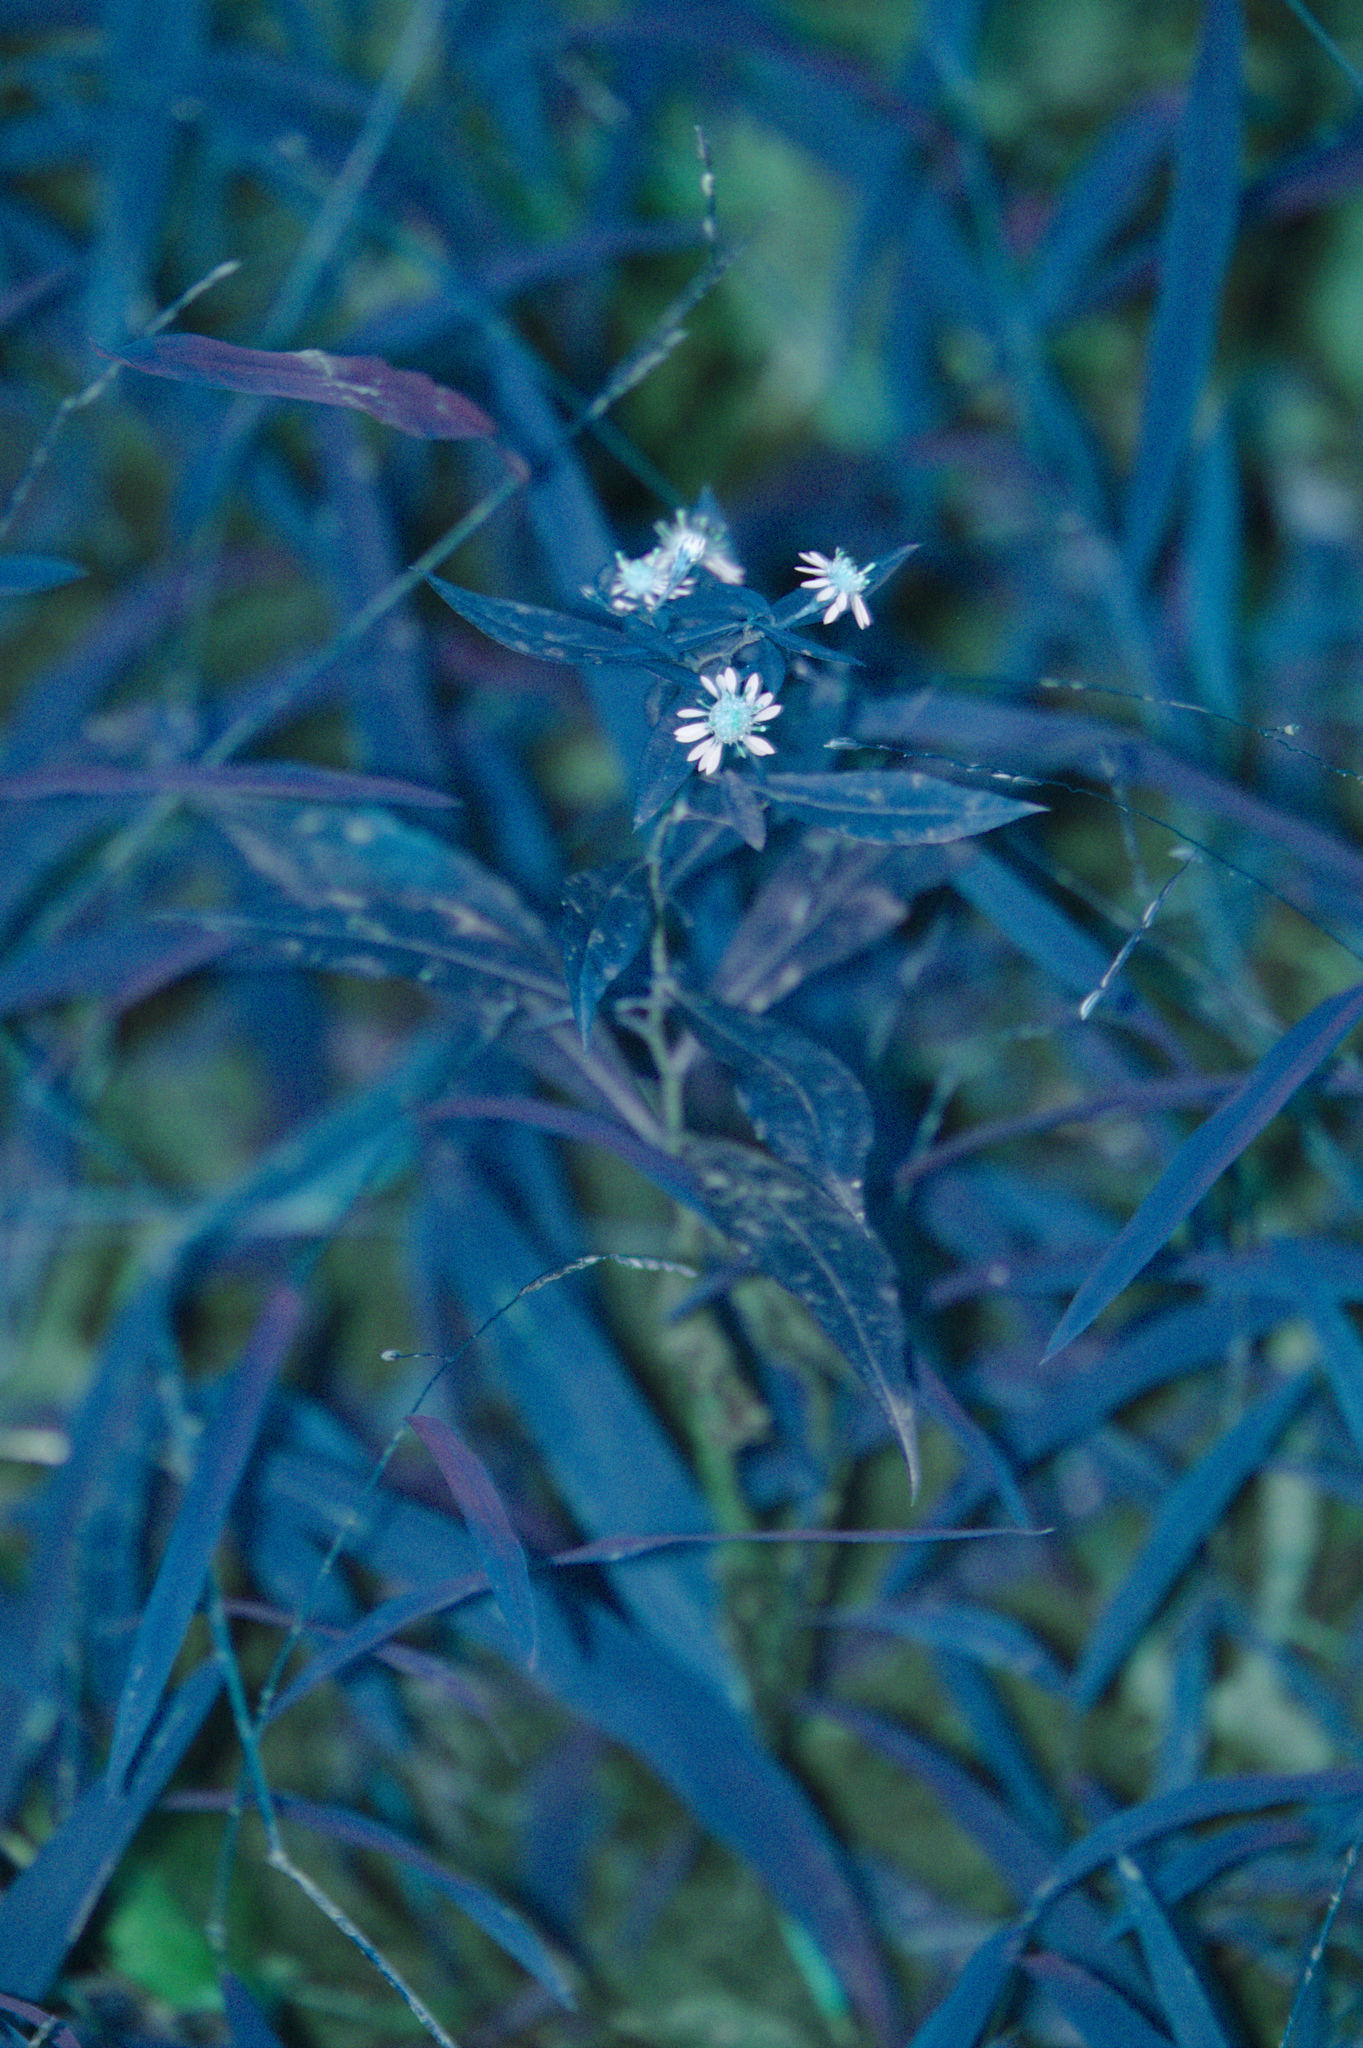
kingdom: Plantae
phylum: Tracheophyta
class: Magnoliopsida
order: Asterales
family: Asteraceae
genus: Symphyotrichum
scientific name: Symphyotrichum lateriflorum
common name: Calico aster
